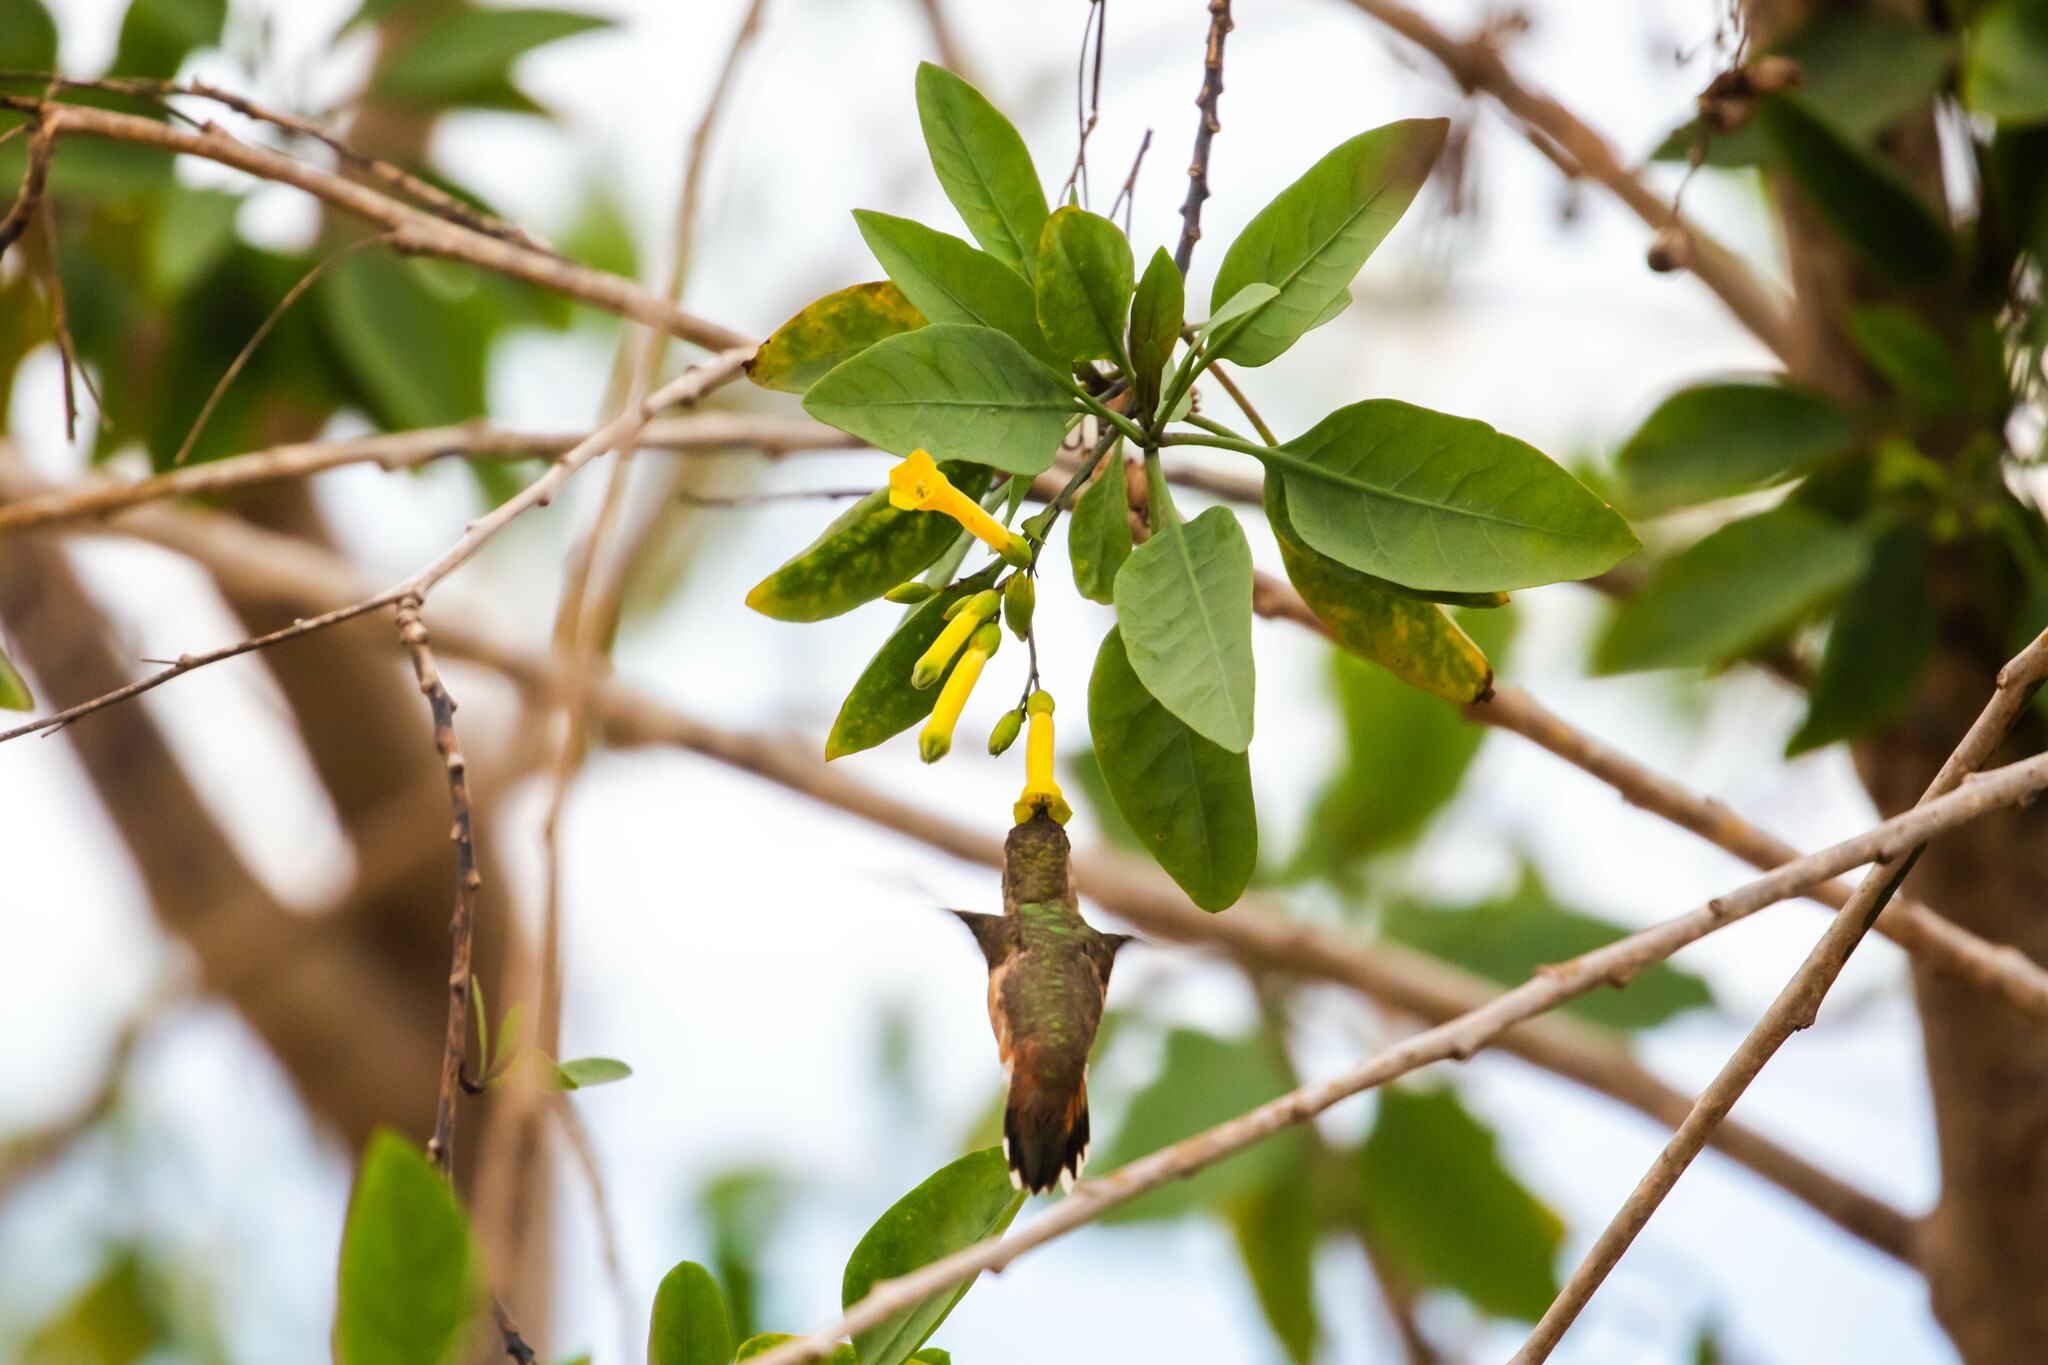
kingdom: Animalia
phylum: Chordata
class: Aves
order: Apodiformes
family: Trochilidae
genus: Selasphorus
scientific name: Selasphorus
